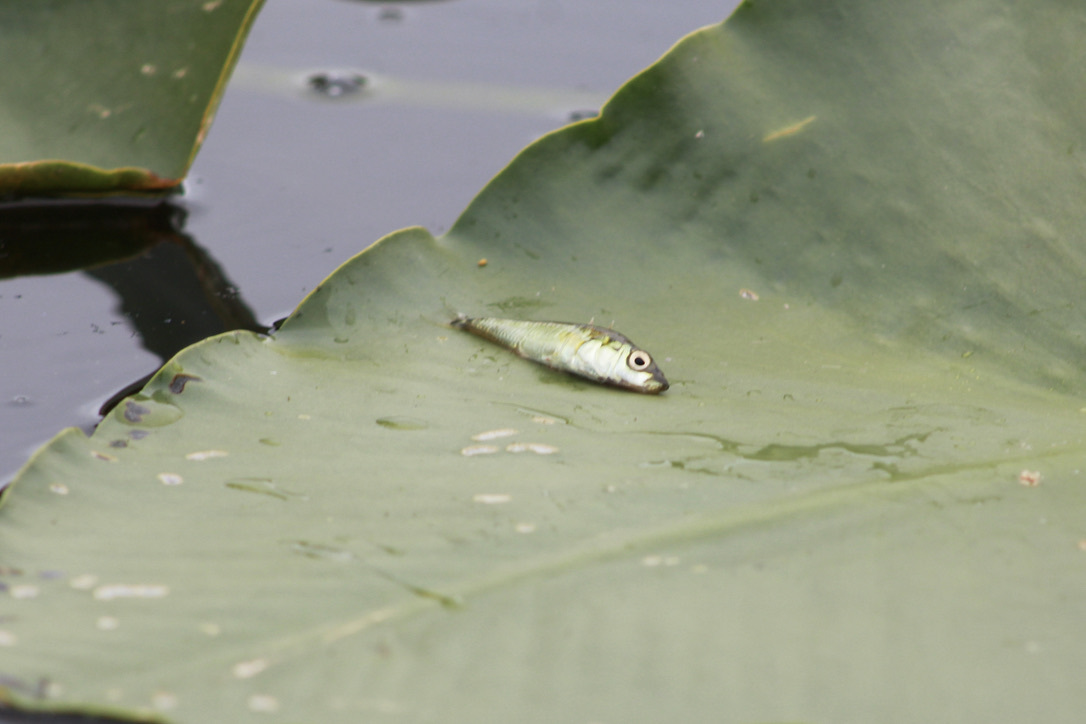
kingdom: Animalia
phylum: Chordata
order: Gasterosteiformes
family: Gasterosteidae
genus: Gasterosteus
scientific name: Gasterosteus aculeatus
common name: Three-spined stickleback
